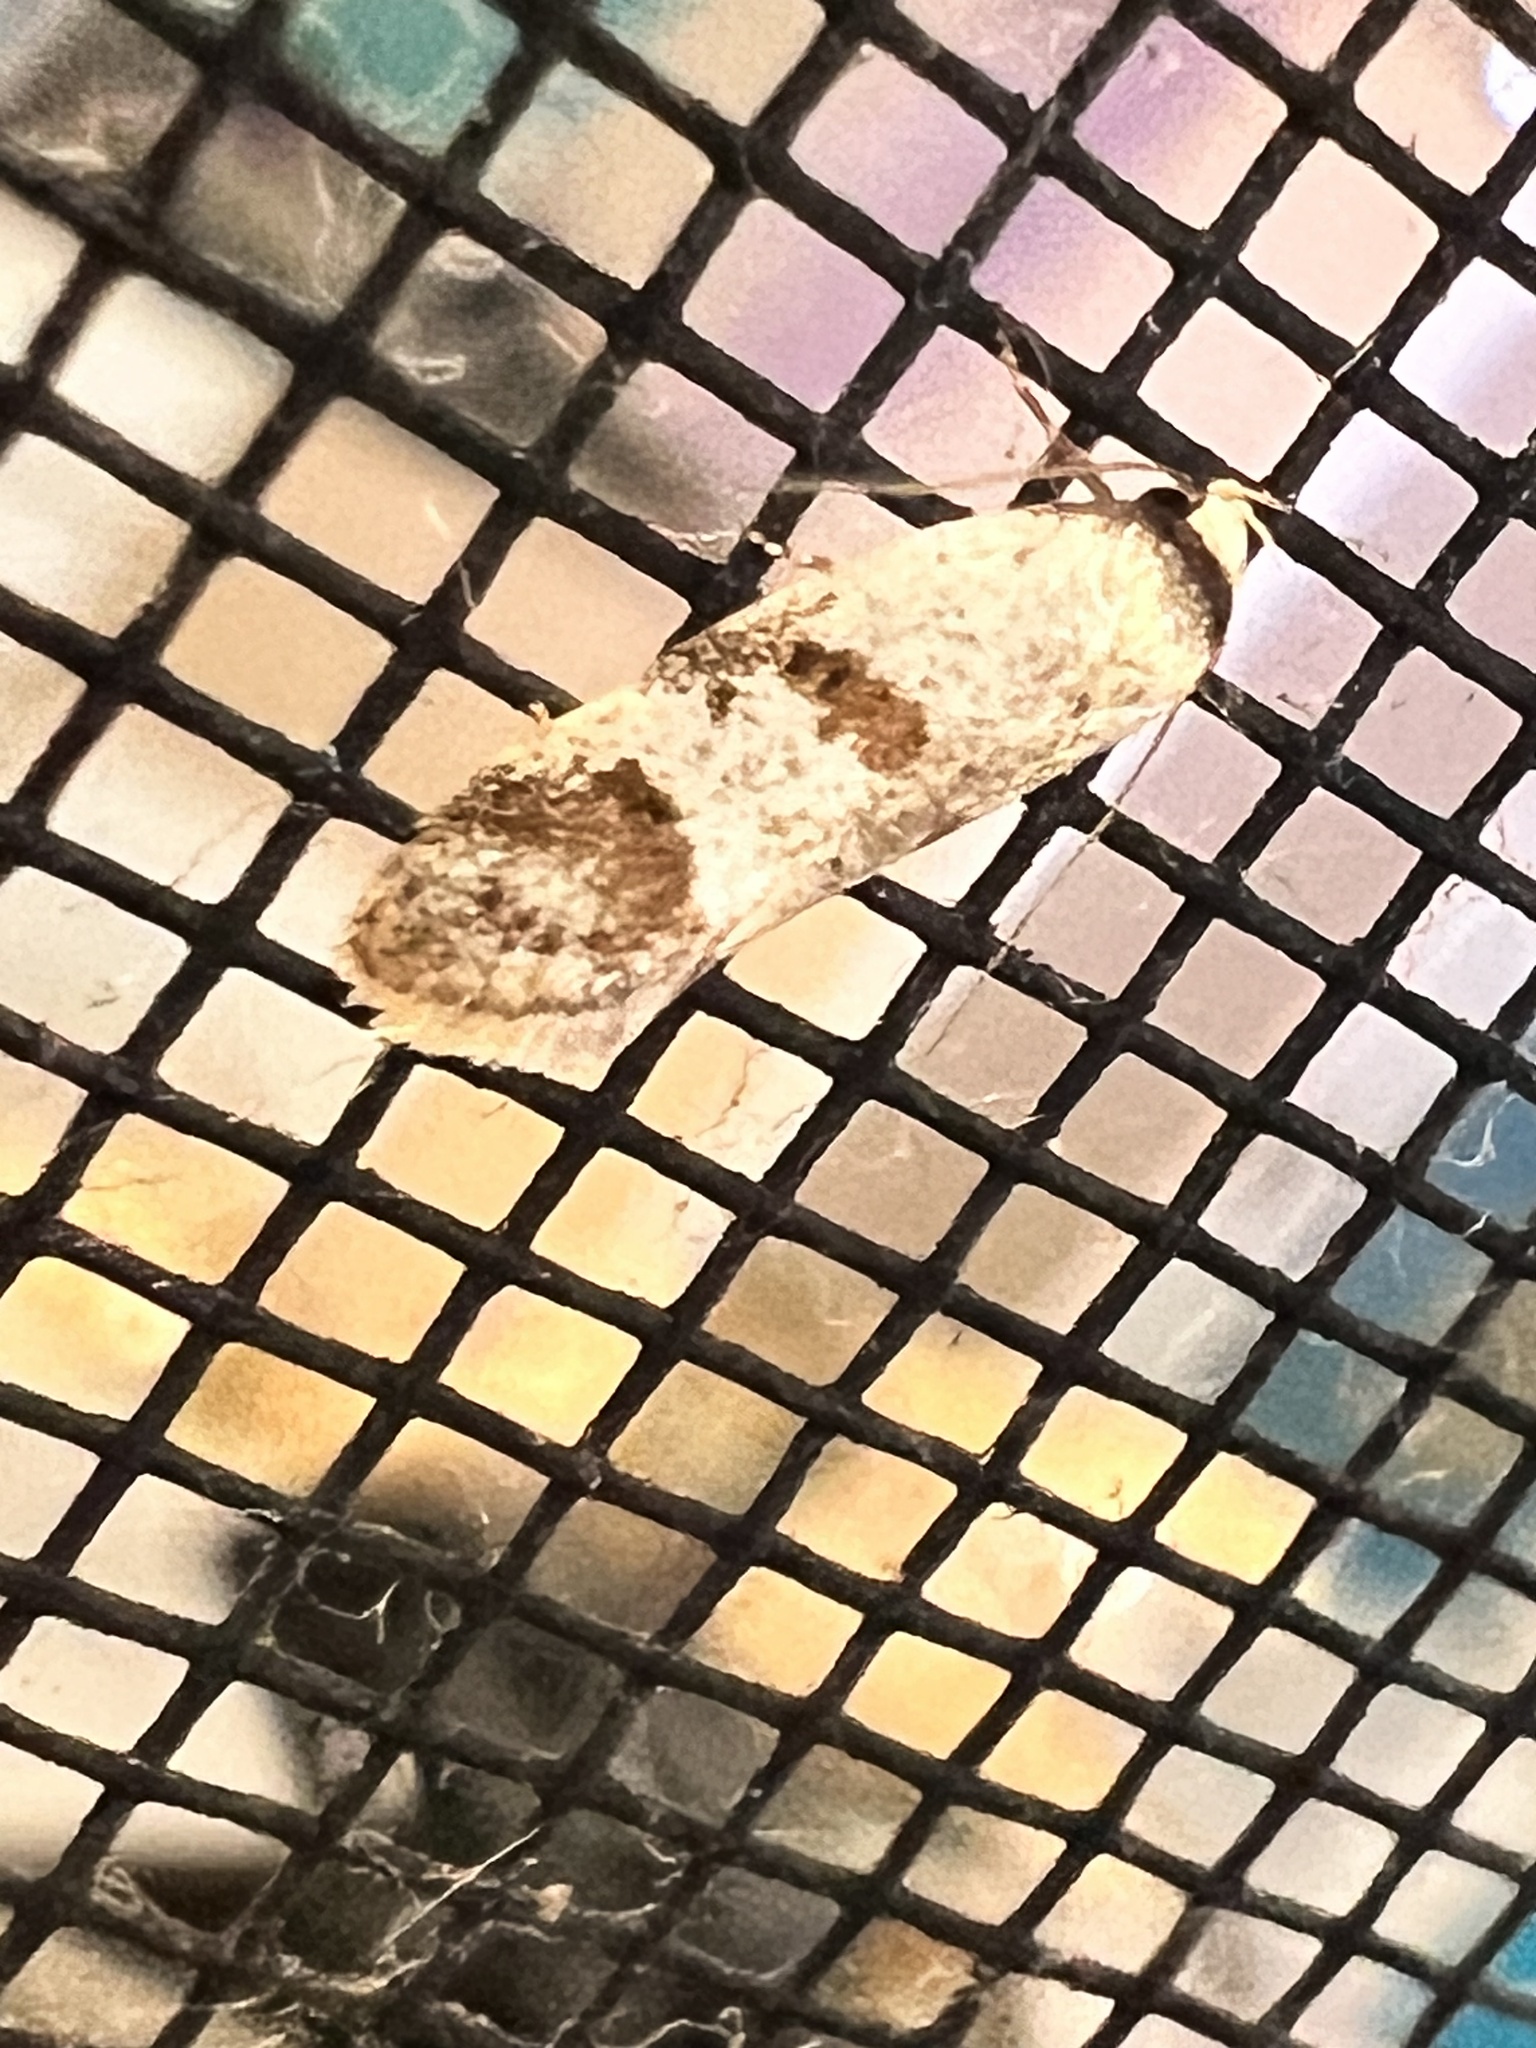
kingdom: Animalia
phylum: Arthropoda
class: Insecta
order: Lepidoptera
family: Oecophoridae
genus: Philobota
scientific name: Philobota curvilinea
